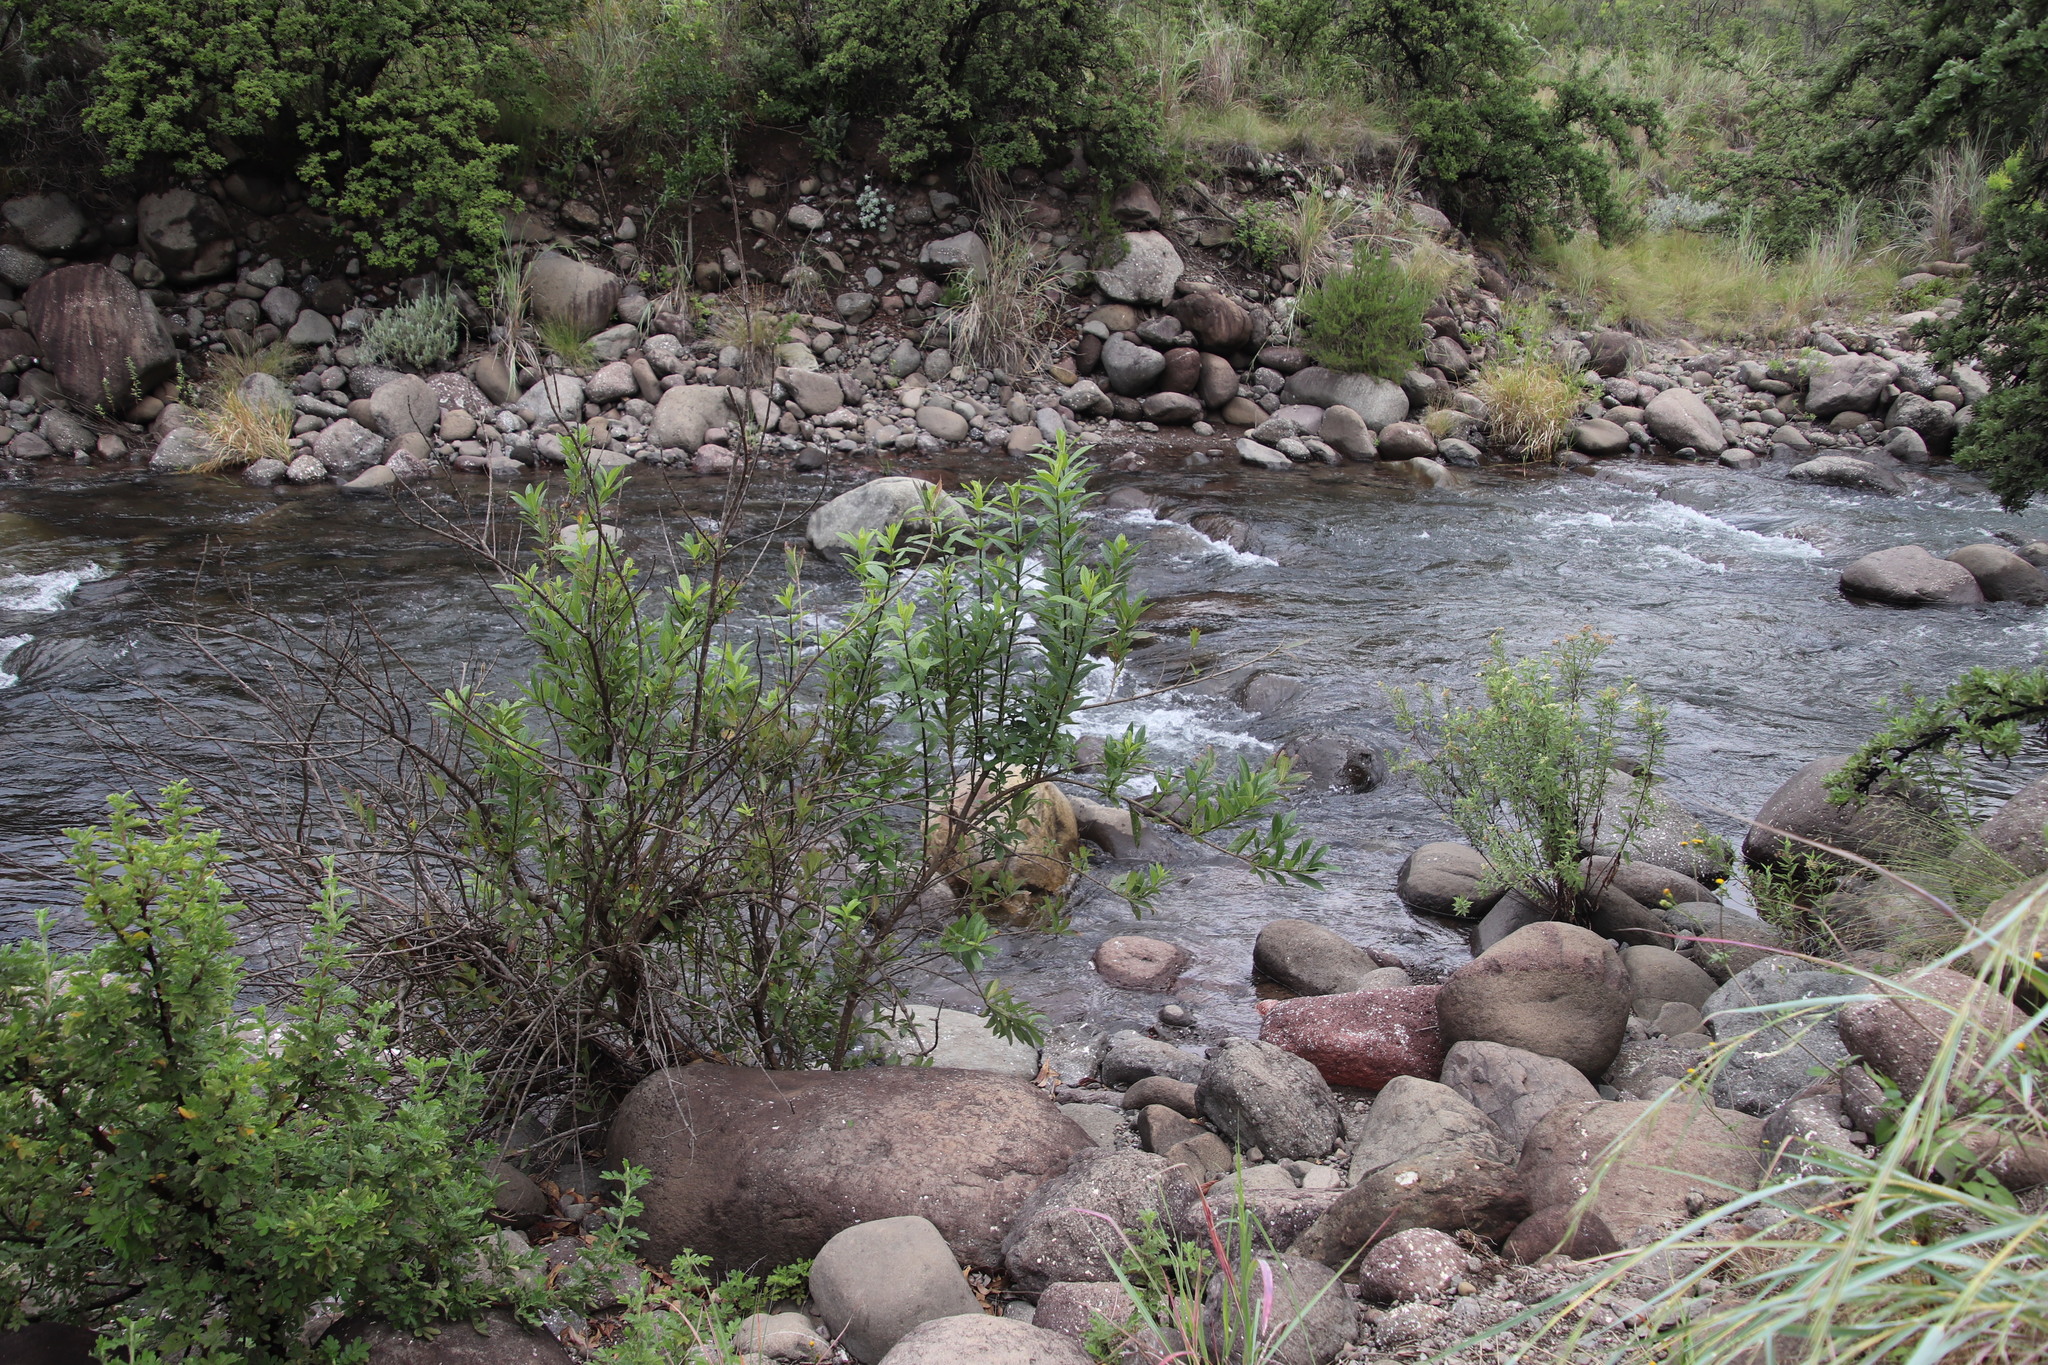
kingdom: Plantae
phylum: Tracheophyta
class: Magnoliopsida
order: Lamiales
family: Stilbaceae
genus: Bowkeria
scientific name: Bowkeria verticillata
